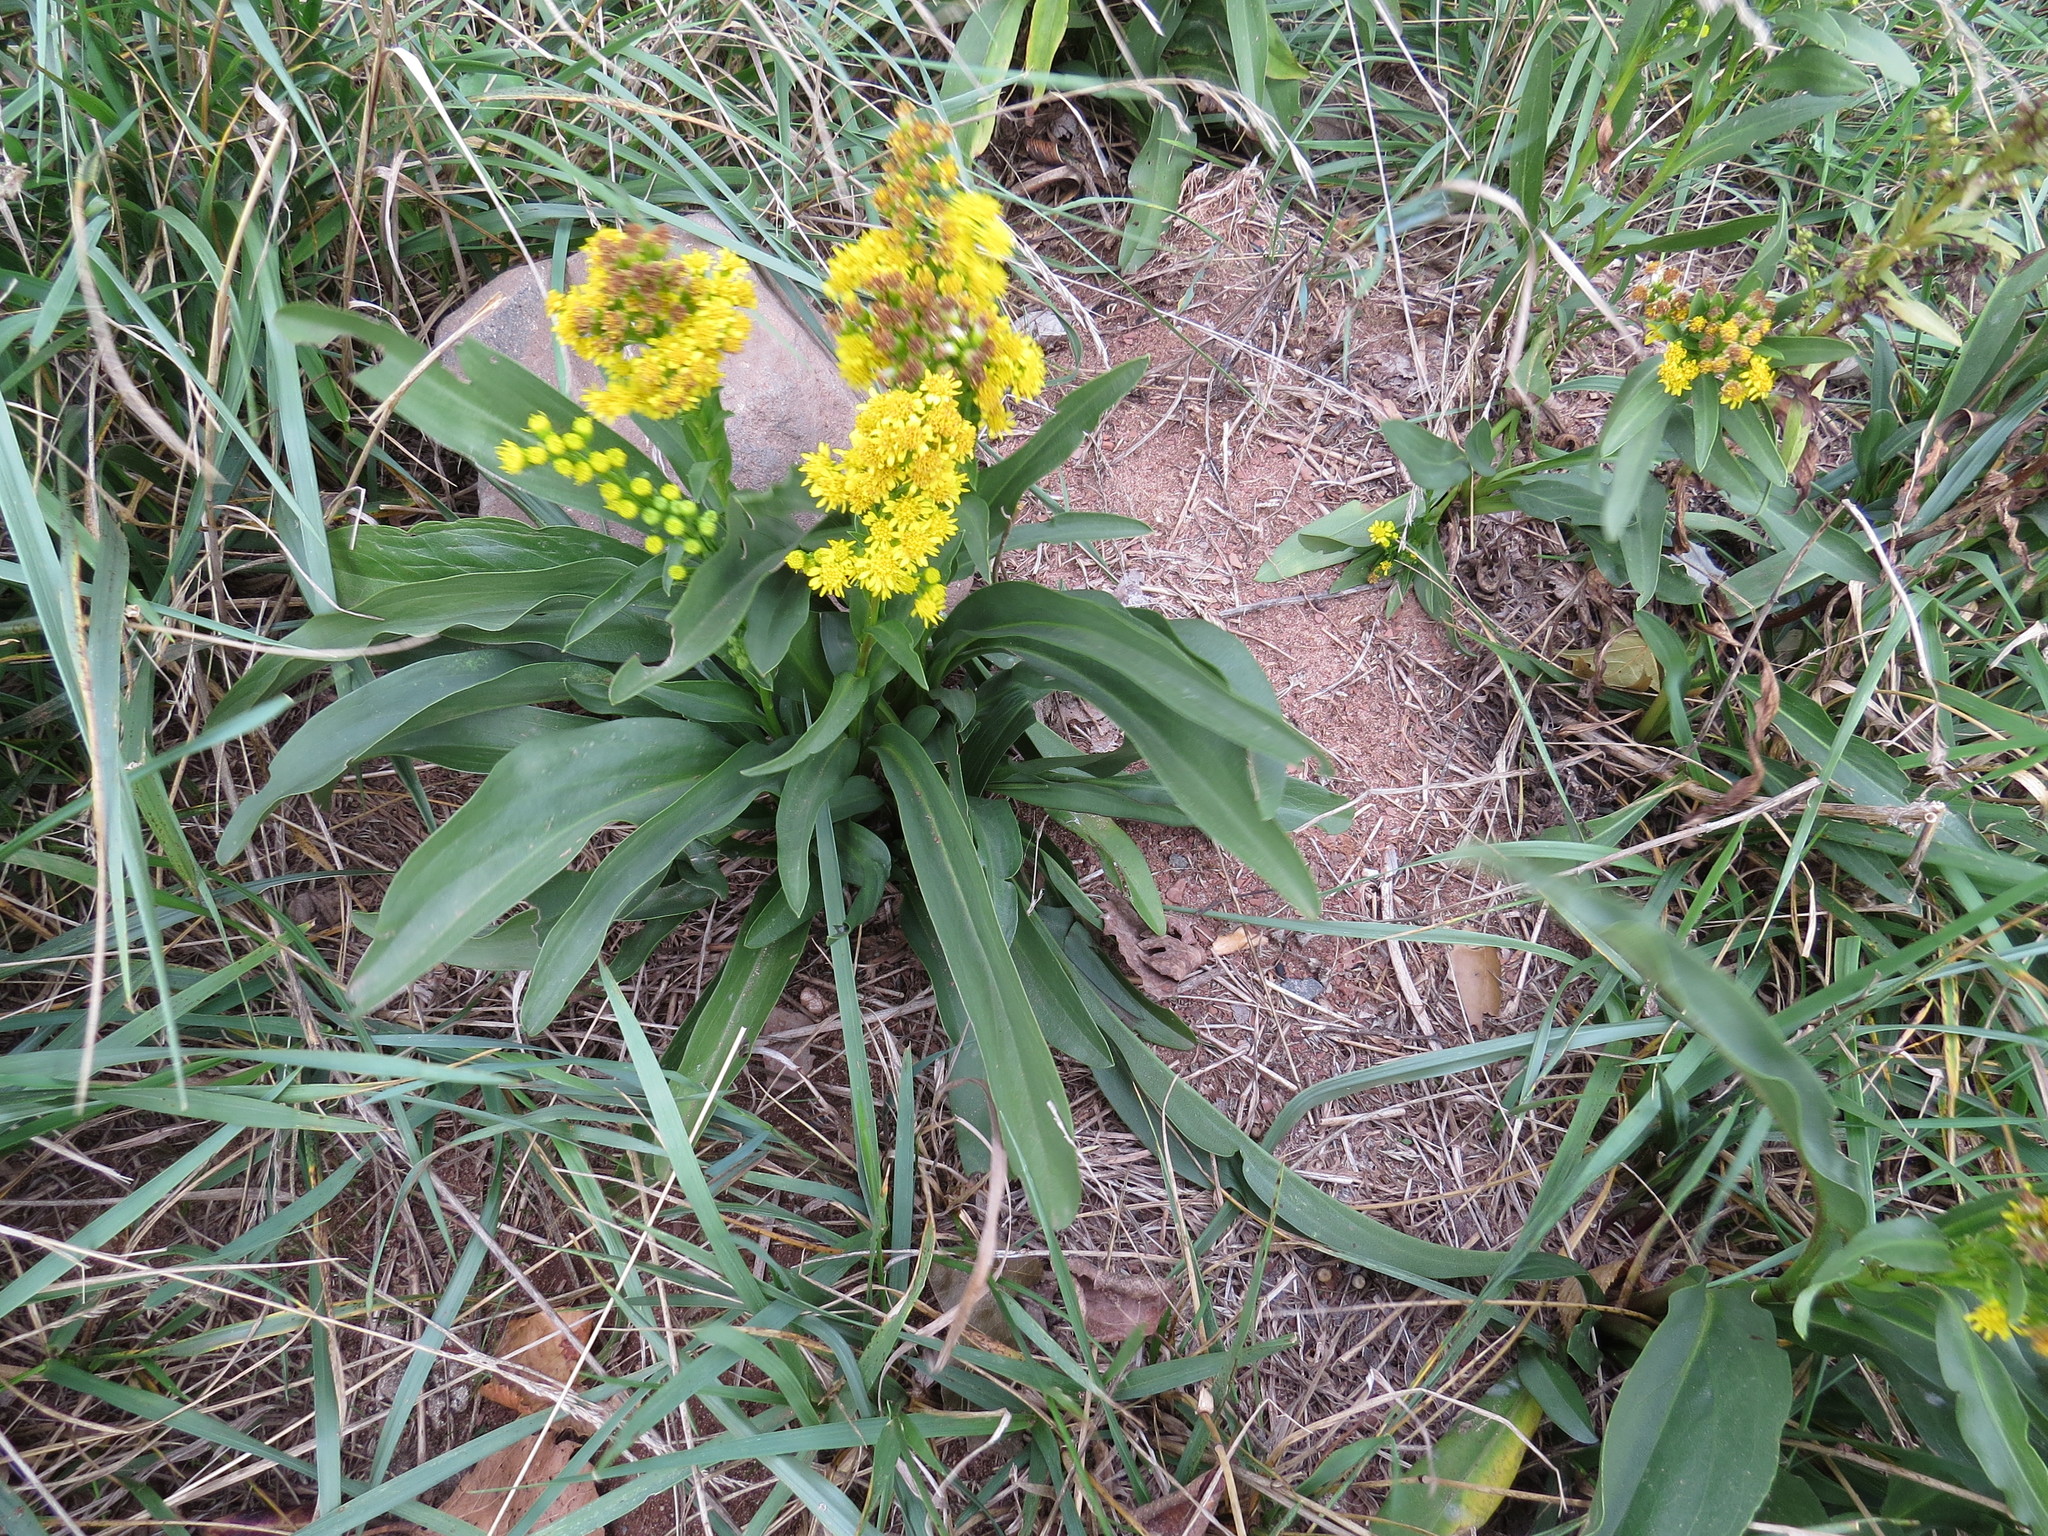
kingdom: Plantae
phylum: Tracheophyta
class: Magnoliopsida
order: Asterales
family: Asteraceae
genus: Solidago
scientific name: Solidago sempervirens
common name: Salt-marsh goldenrod
